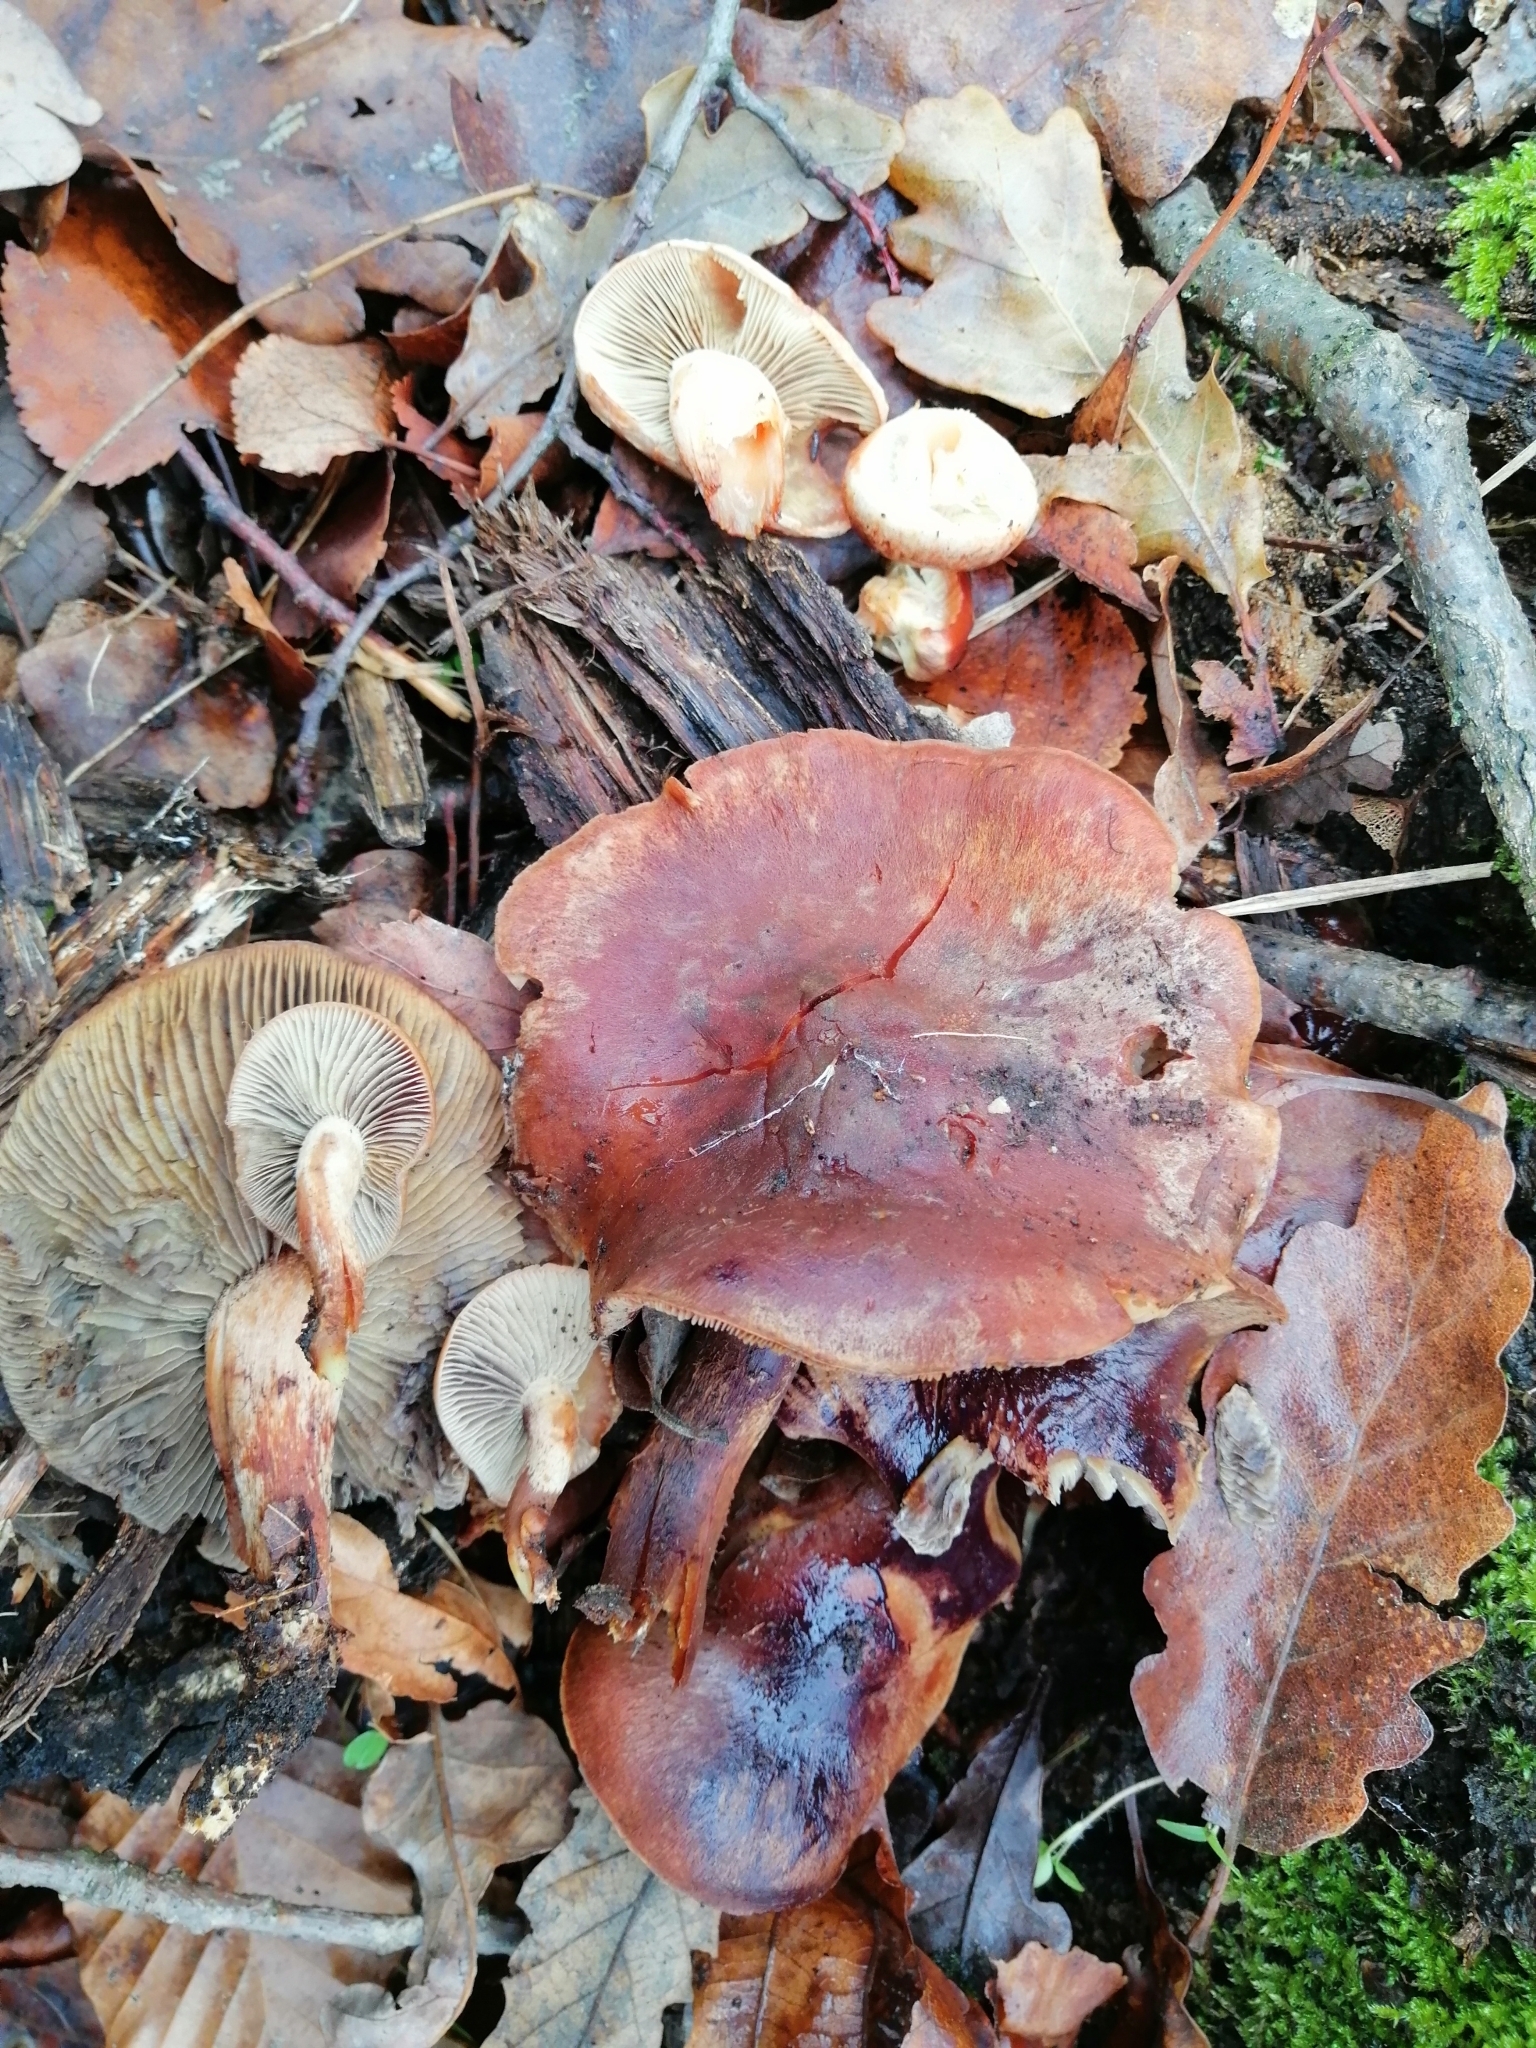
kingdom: Fungi
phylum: Basidiomycota
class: Agaricomycetes
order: Agaricales
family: Strophariaceae
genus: Hypholoma
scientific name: Hypholoma lateritium
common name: Brick caps
